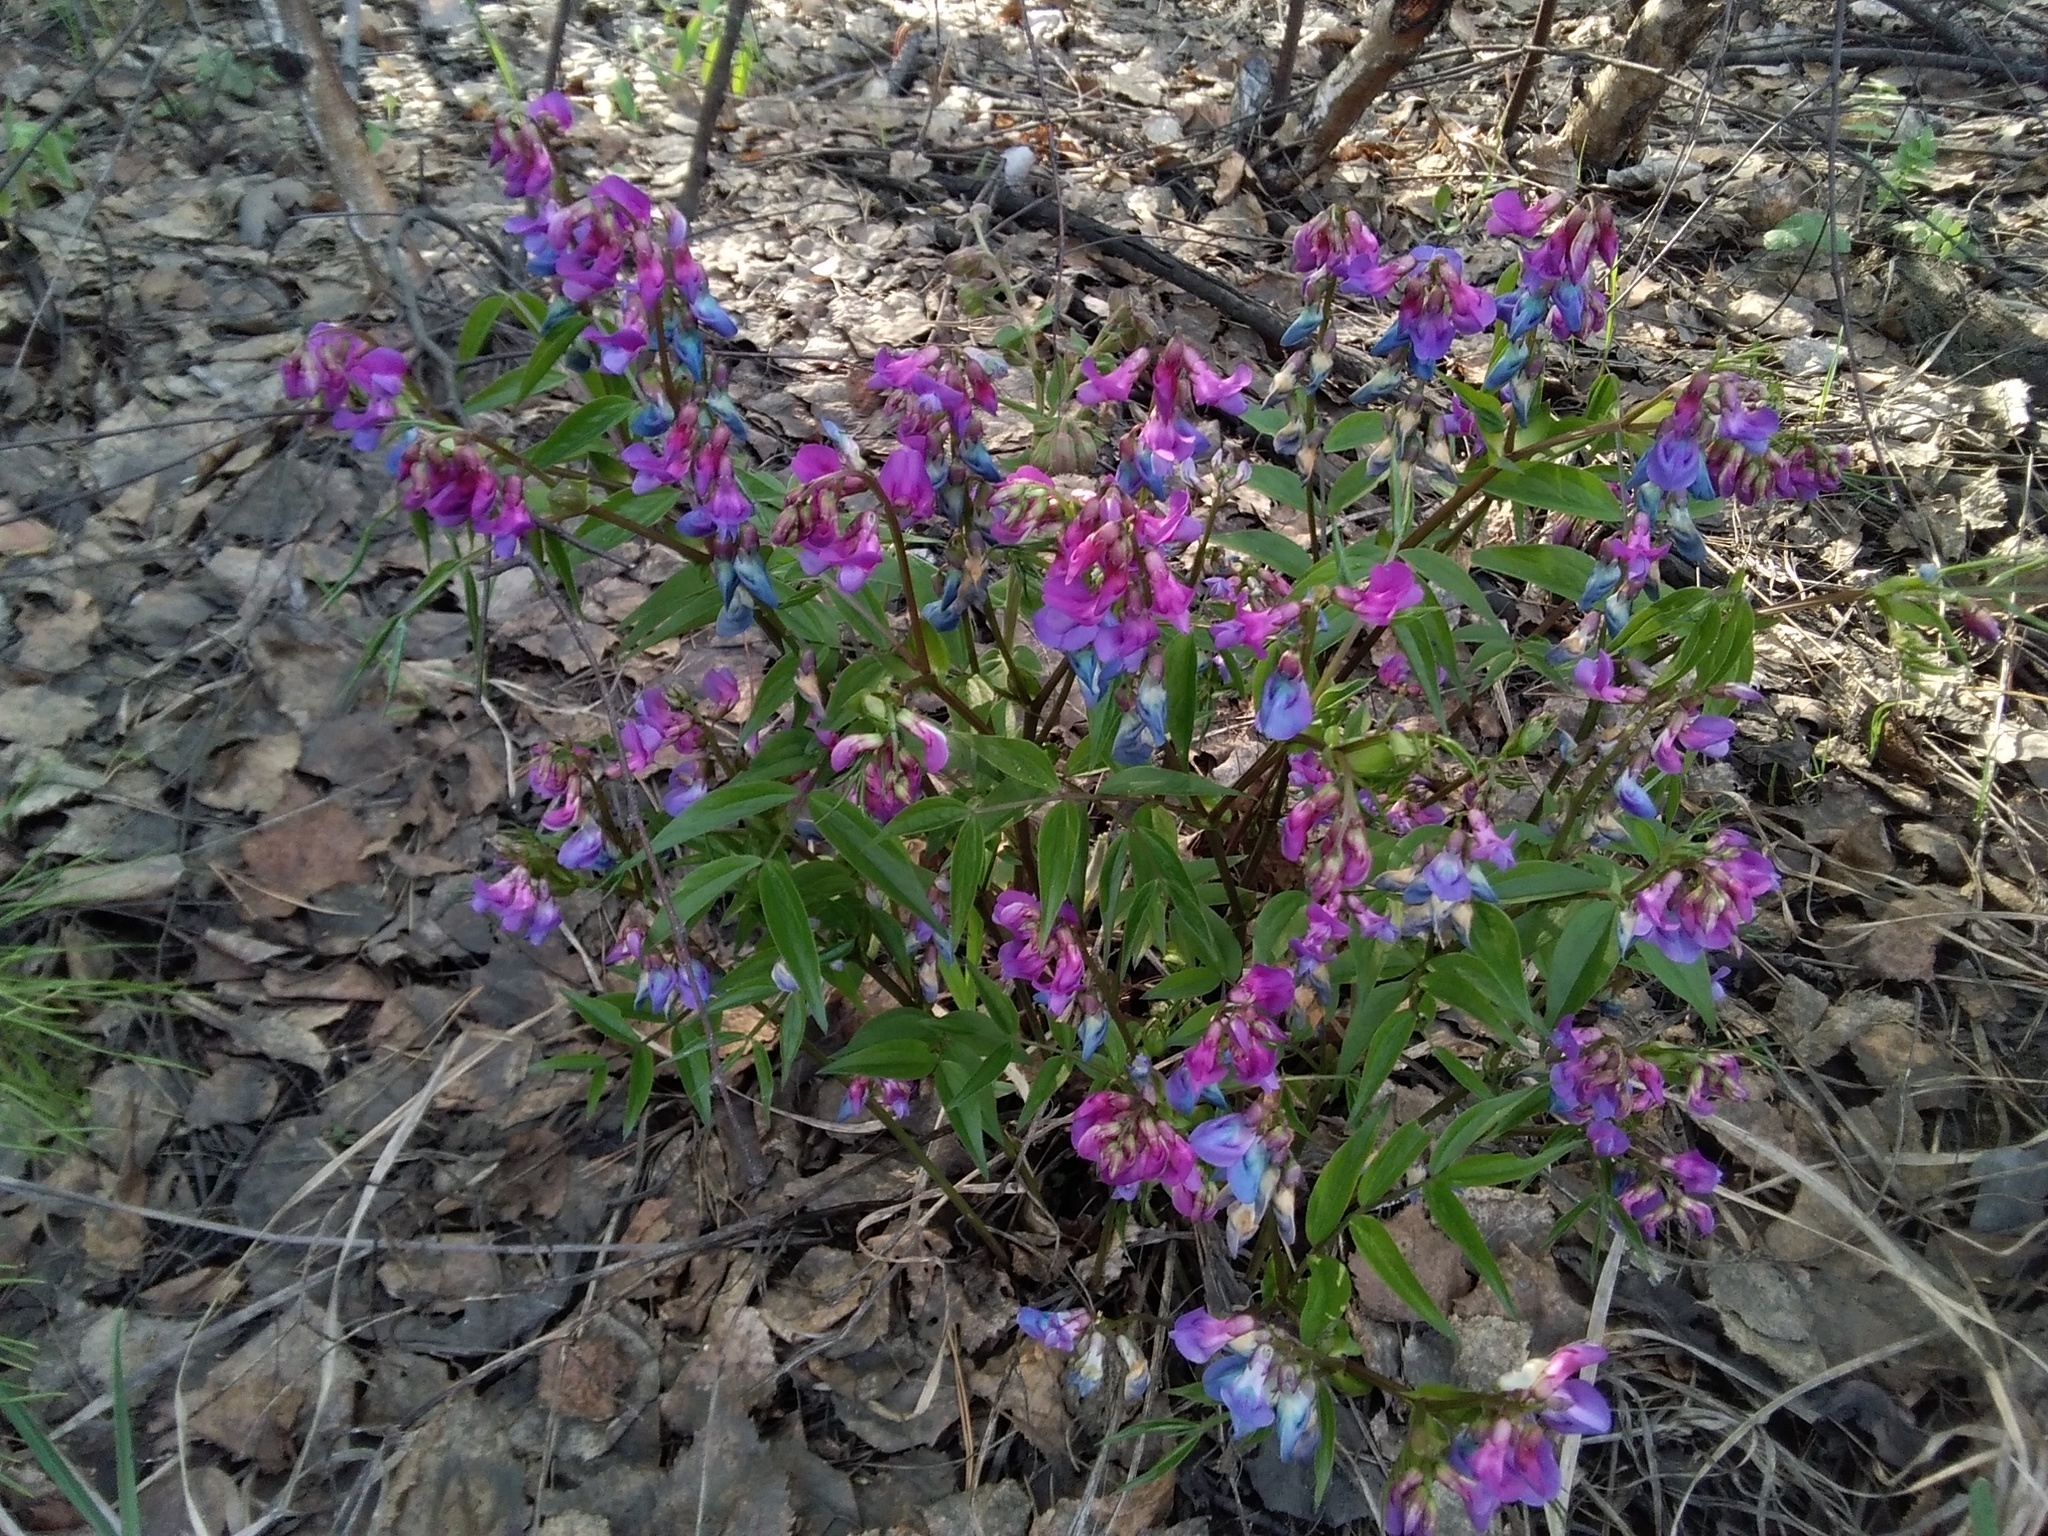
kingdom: Plantae
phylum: Tracheophyta
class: Magnoliopsida
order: Fabales
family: Fabaceae
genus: Lathyrus
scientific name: Lathyrus vernus
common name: Spring pea
